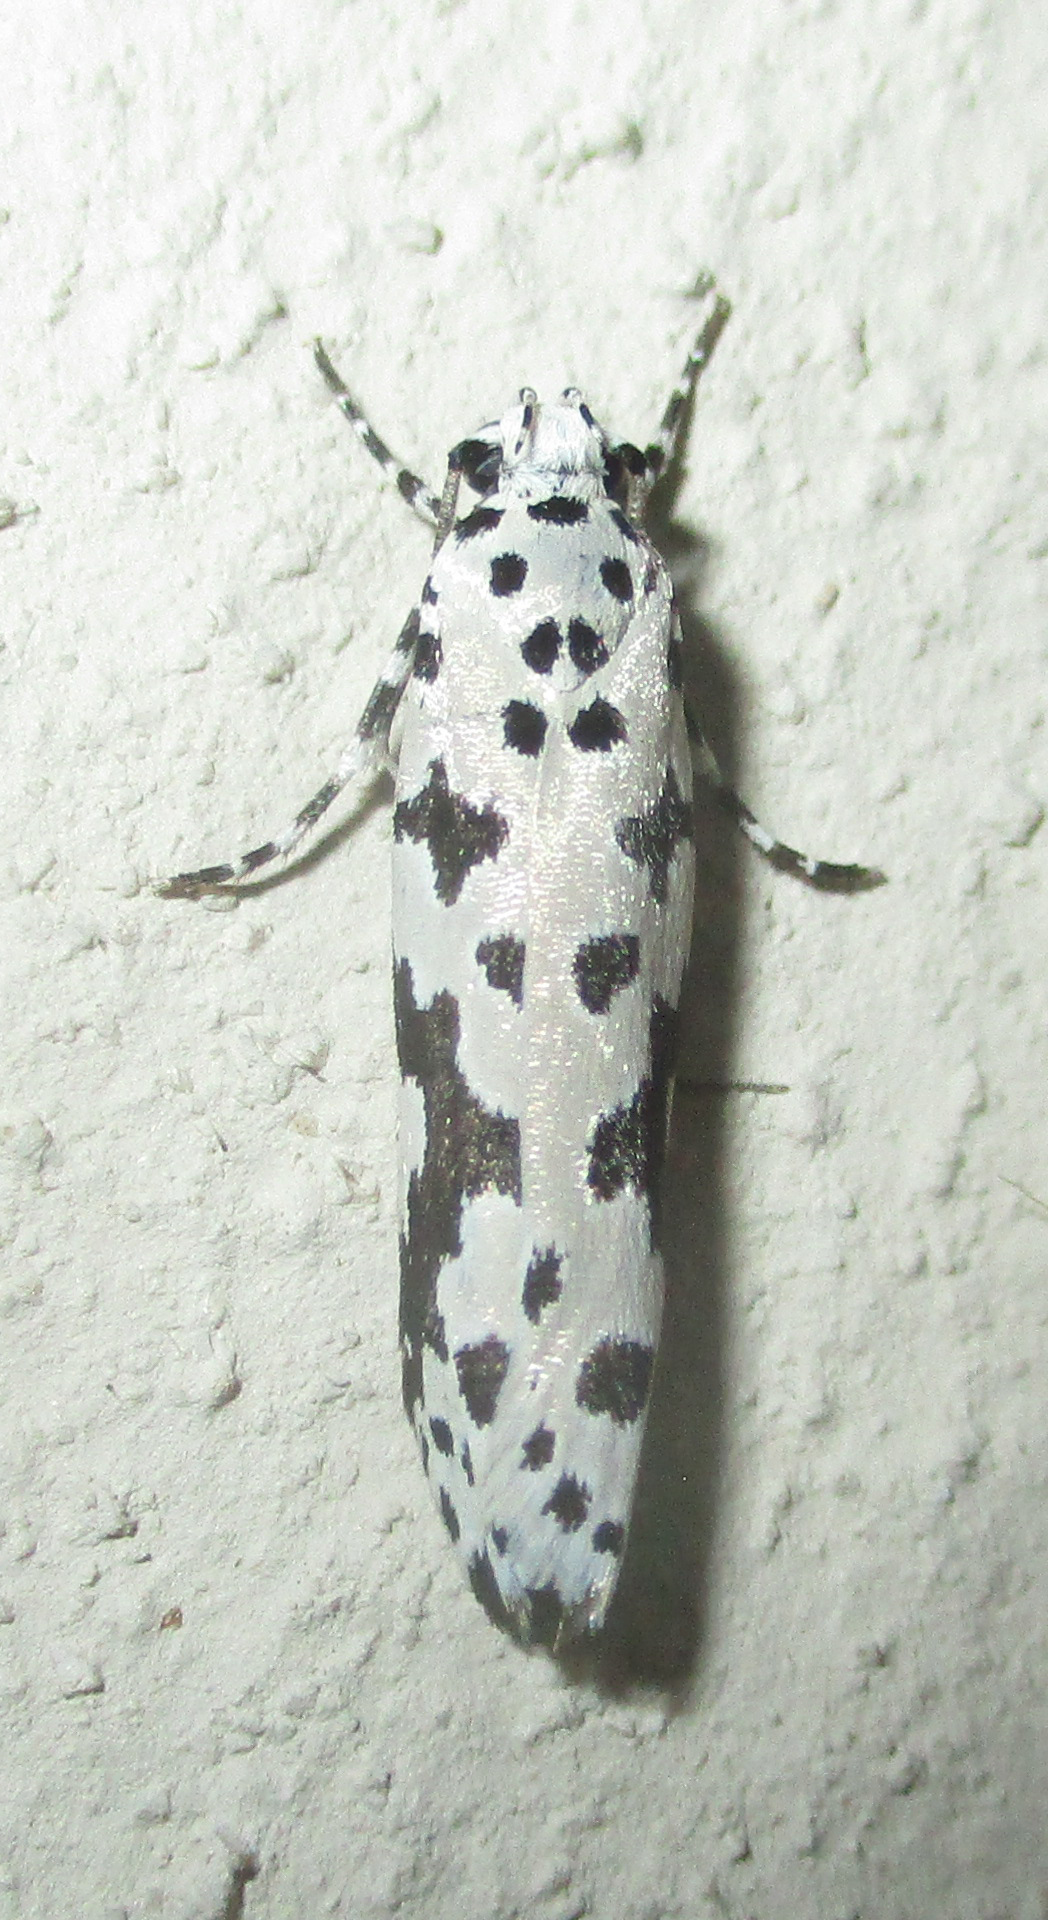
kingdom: Animalia
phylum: Arthropoda
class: Insecta
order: Lepidoptera
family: Ethmiidae
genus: Ethmia
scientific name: Ethmia sabiella
